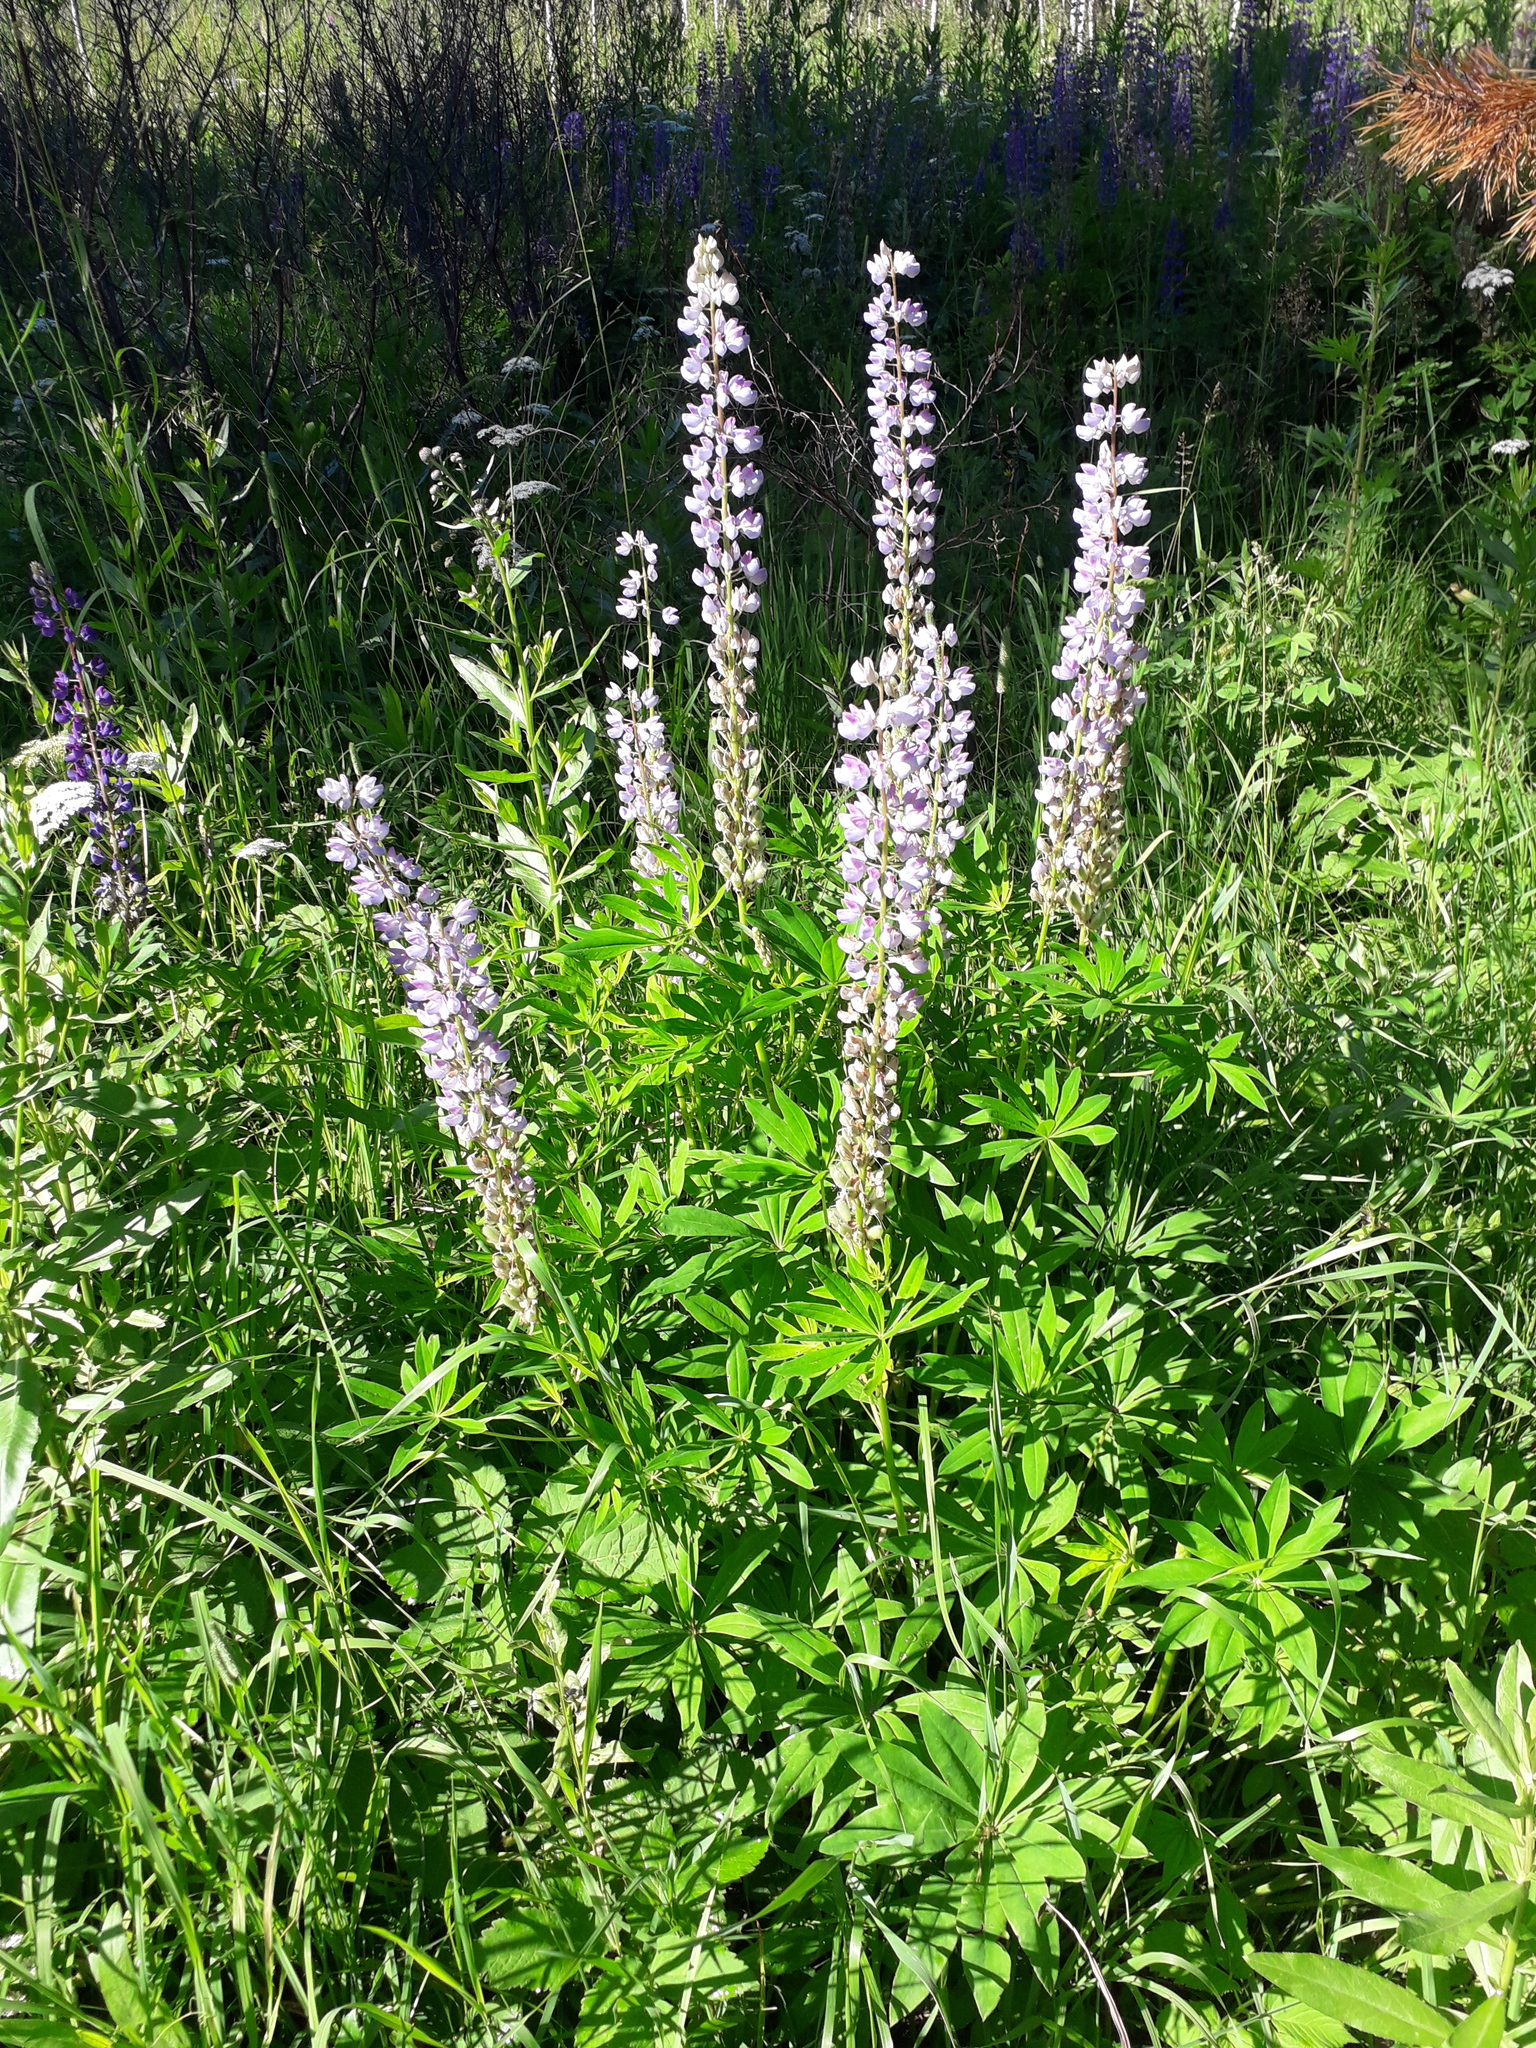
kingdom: Plantae
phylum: Tracheophyta
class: Magnoliopsida
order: Fabales
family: Fabaceae
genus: Lupinus
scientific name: Lupinus polyphyllus
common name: Garden lupin
